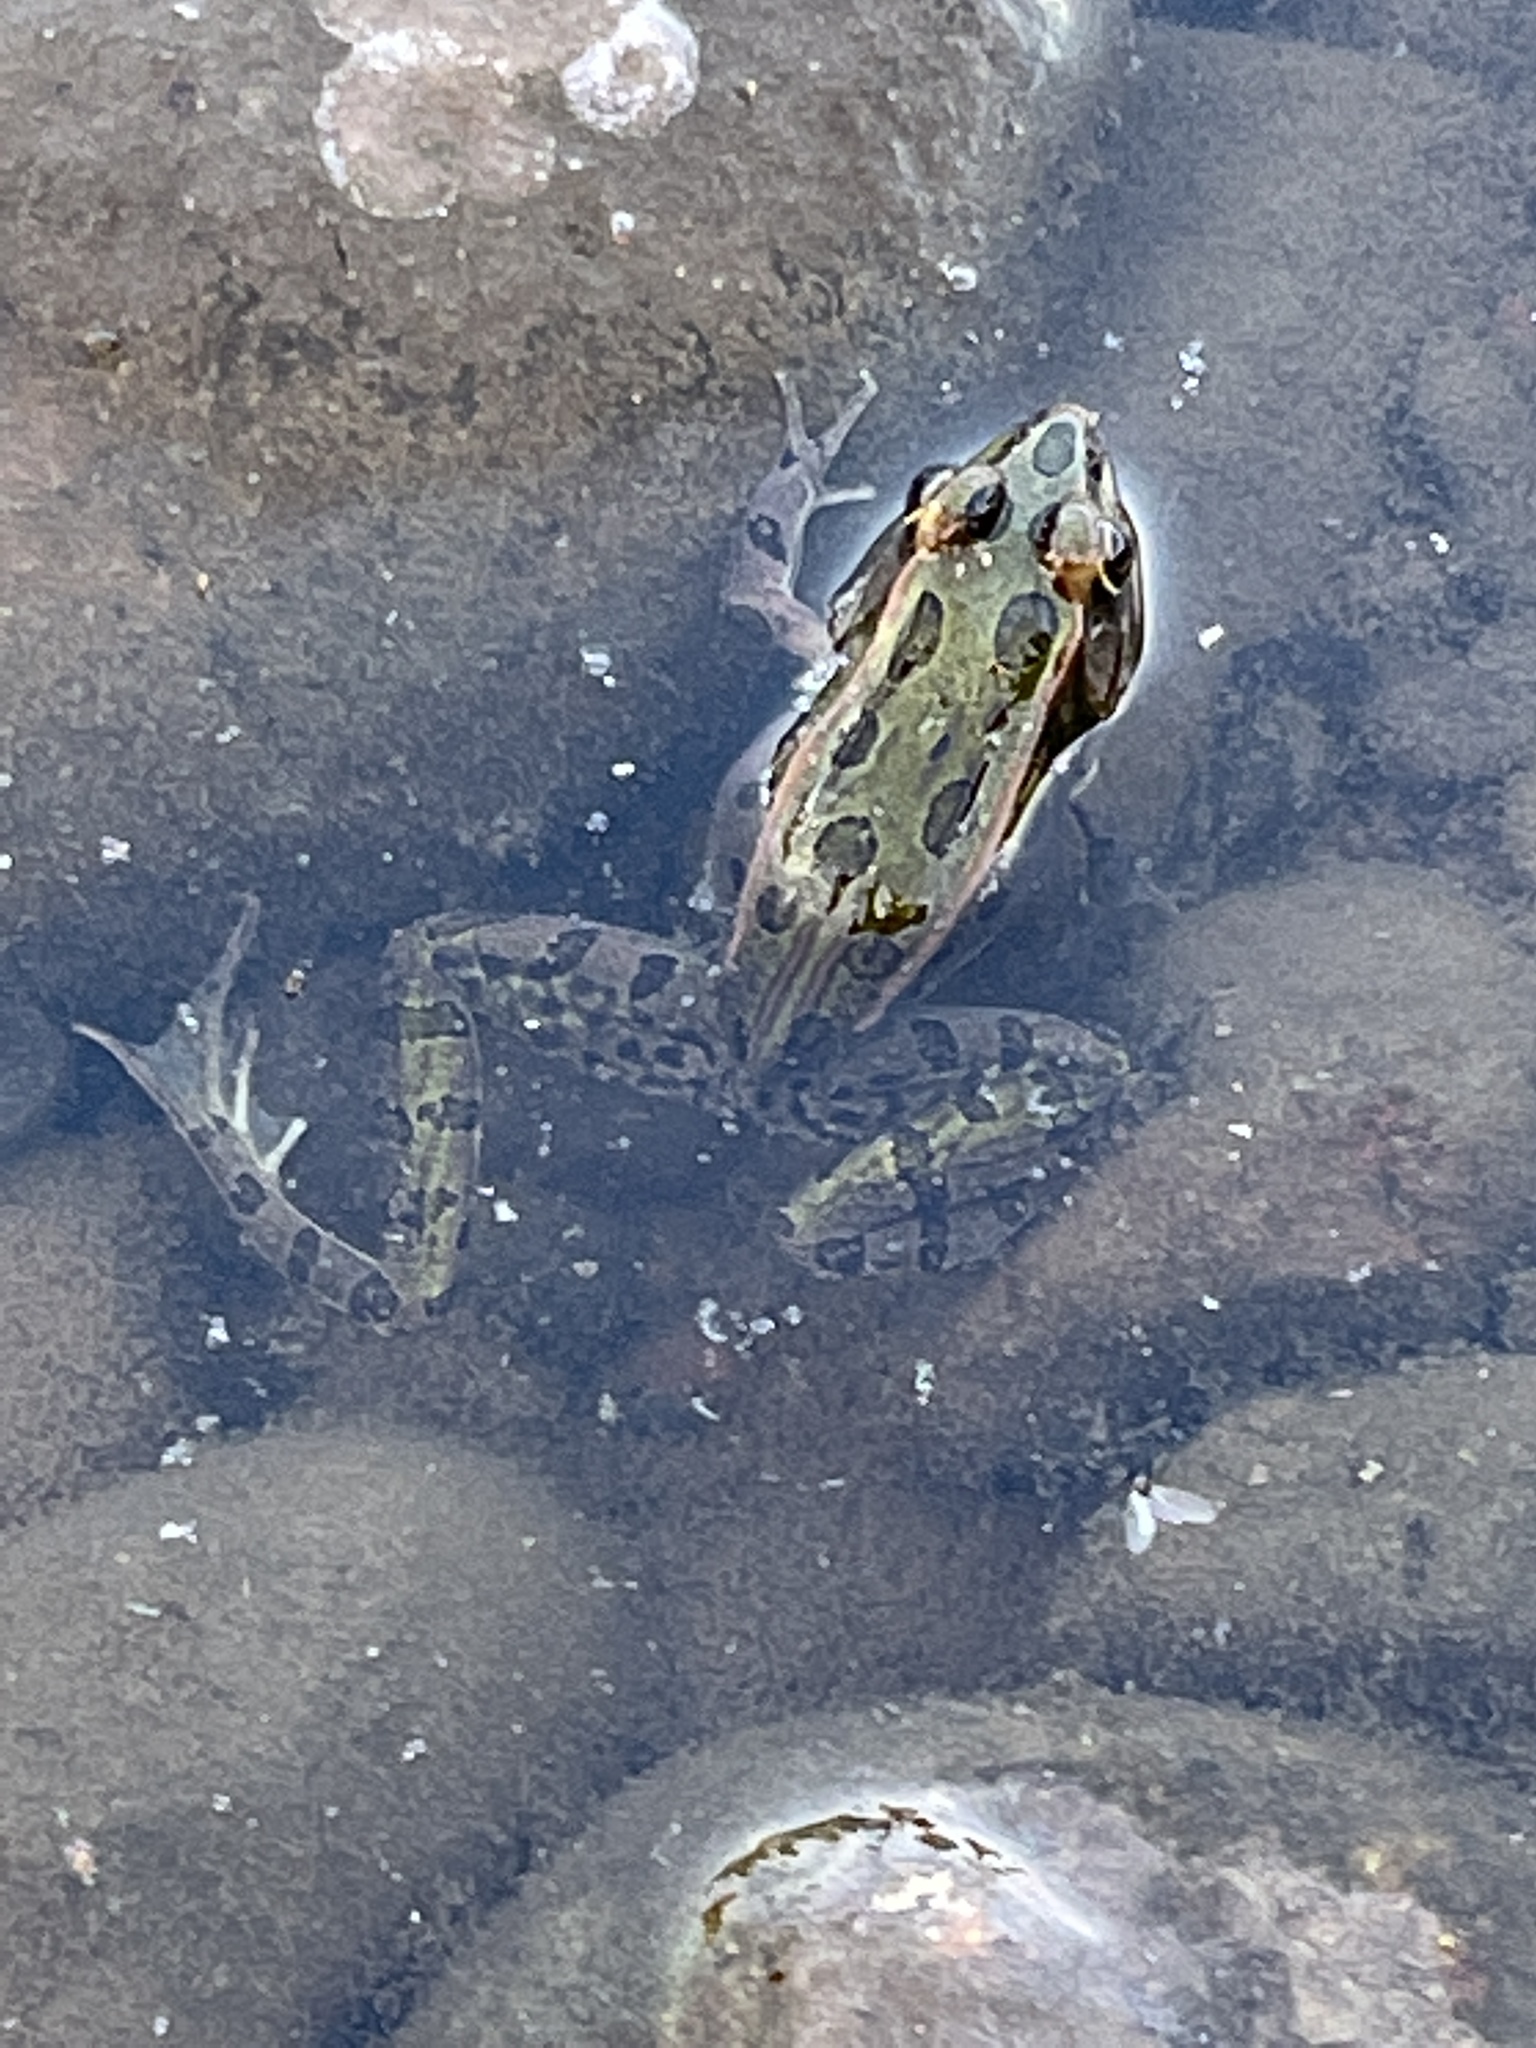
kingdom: Animalia
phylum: Chordata
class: Amphibia
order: Anura
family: Ranidae
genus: Lithobates
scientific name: Lithobates pipiens
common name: Northern leopard frog
